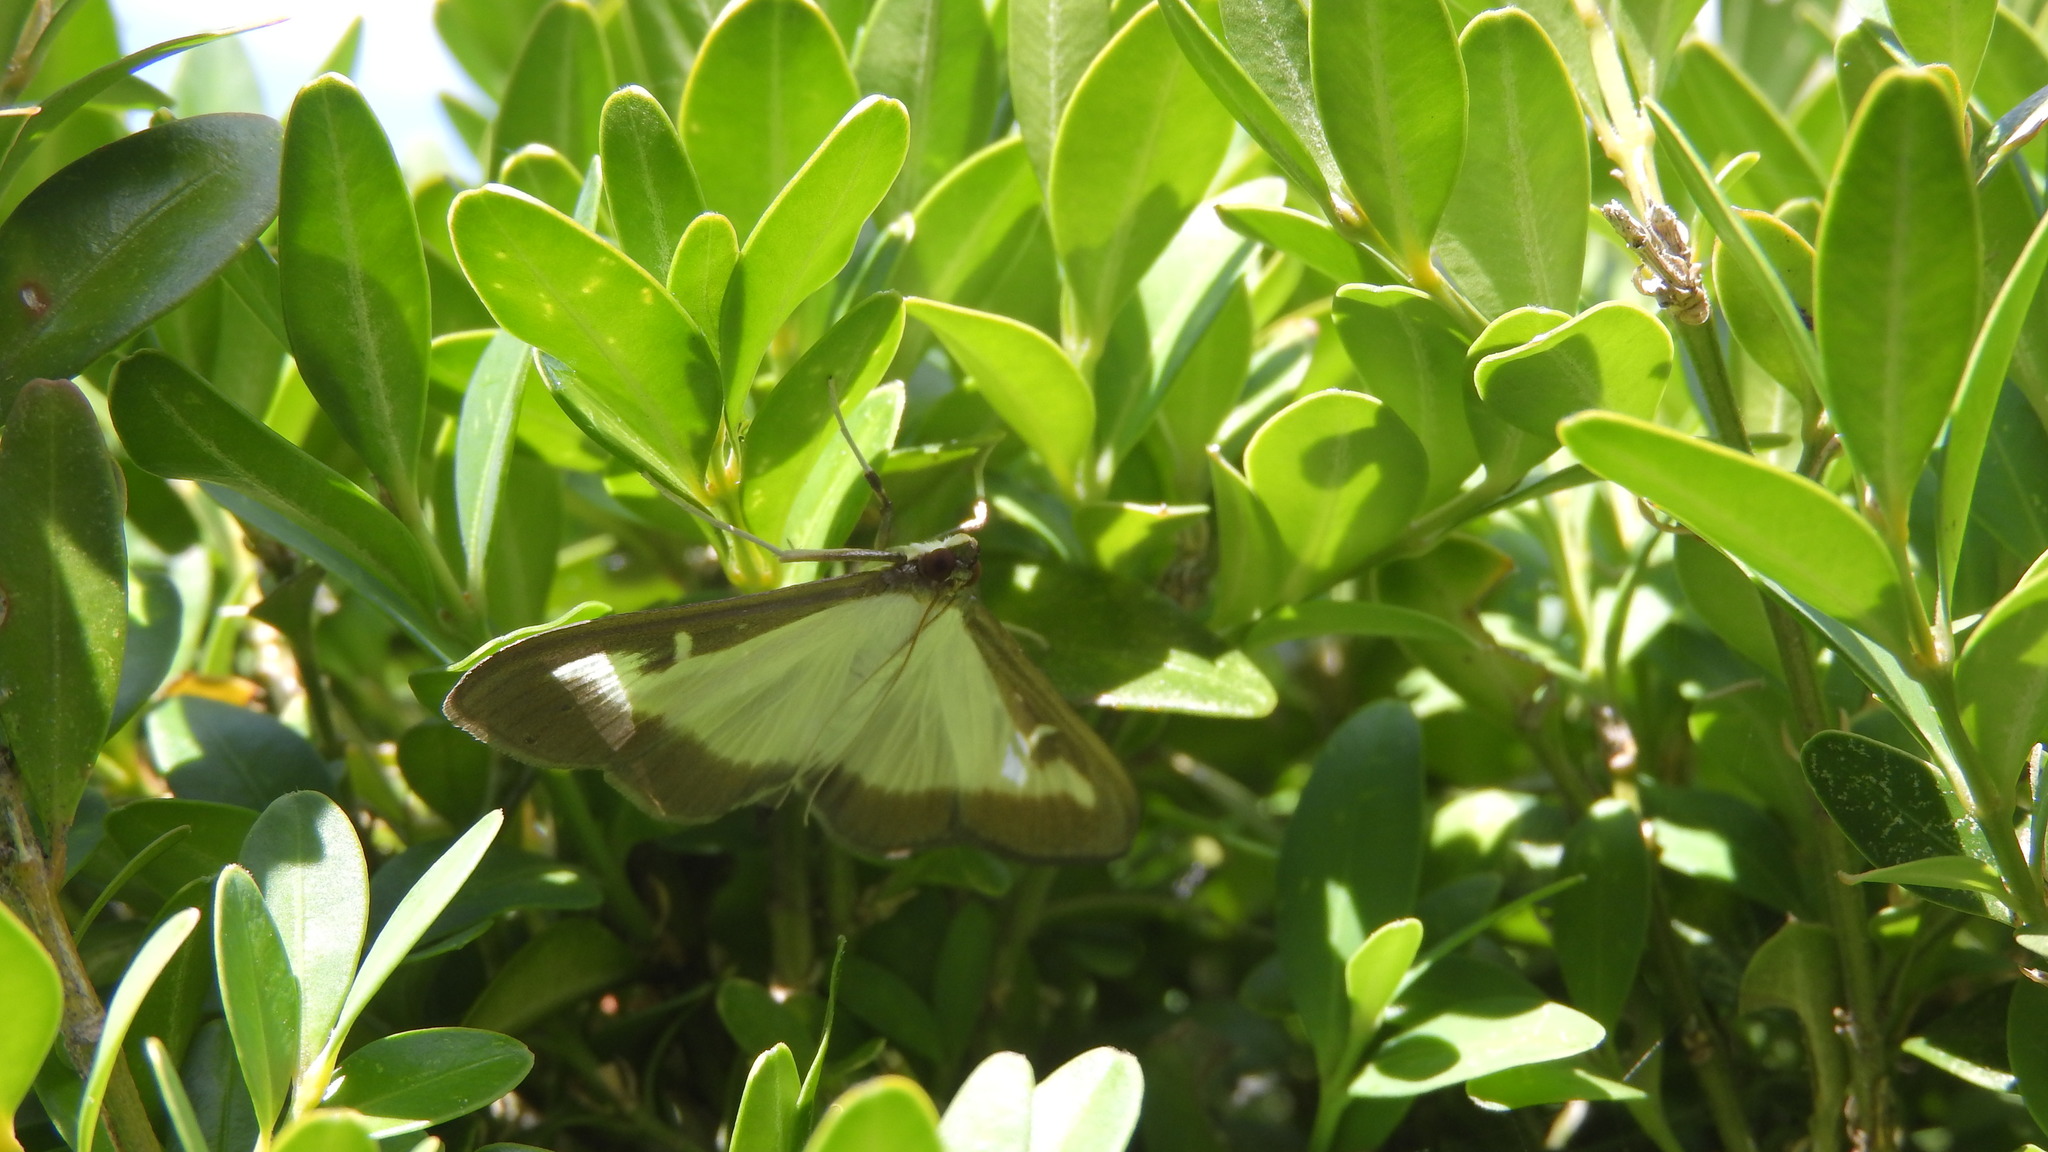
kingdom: Animalia
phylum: Arthropoda
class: Insecta
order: Lepidoptera
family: Crambidae
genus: Cydalima
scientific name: Cydalima perspectalis
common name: Box tree moth
